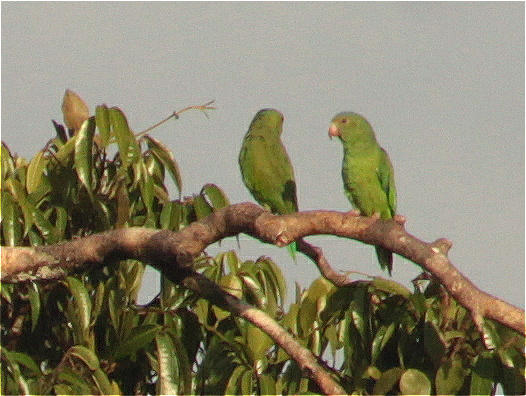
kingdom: Animalia
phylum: Chordata
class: Aves
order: Psittaciformes
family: Psittacidae
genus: Brotogeris
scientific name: Brotogeris cyanoptera
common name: Cobalt-winged parakeet
